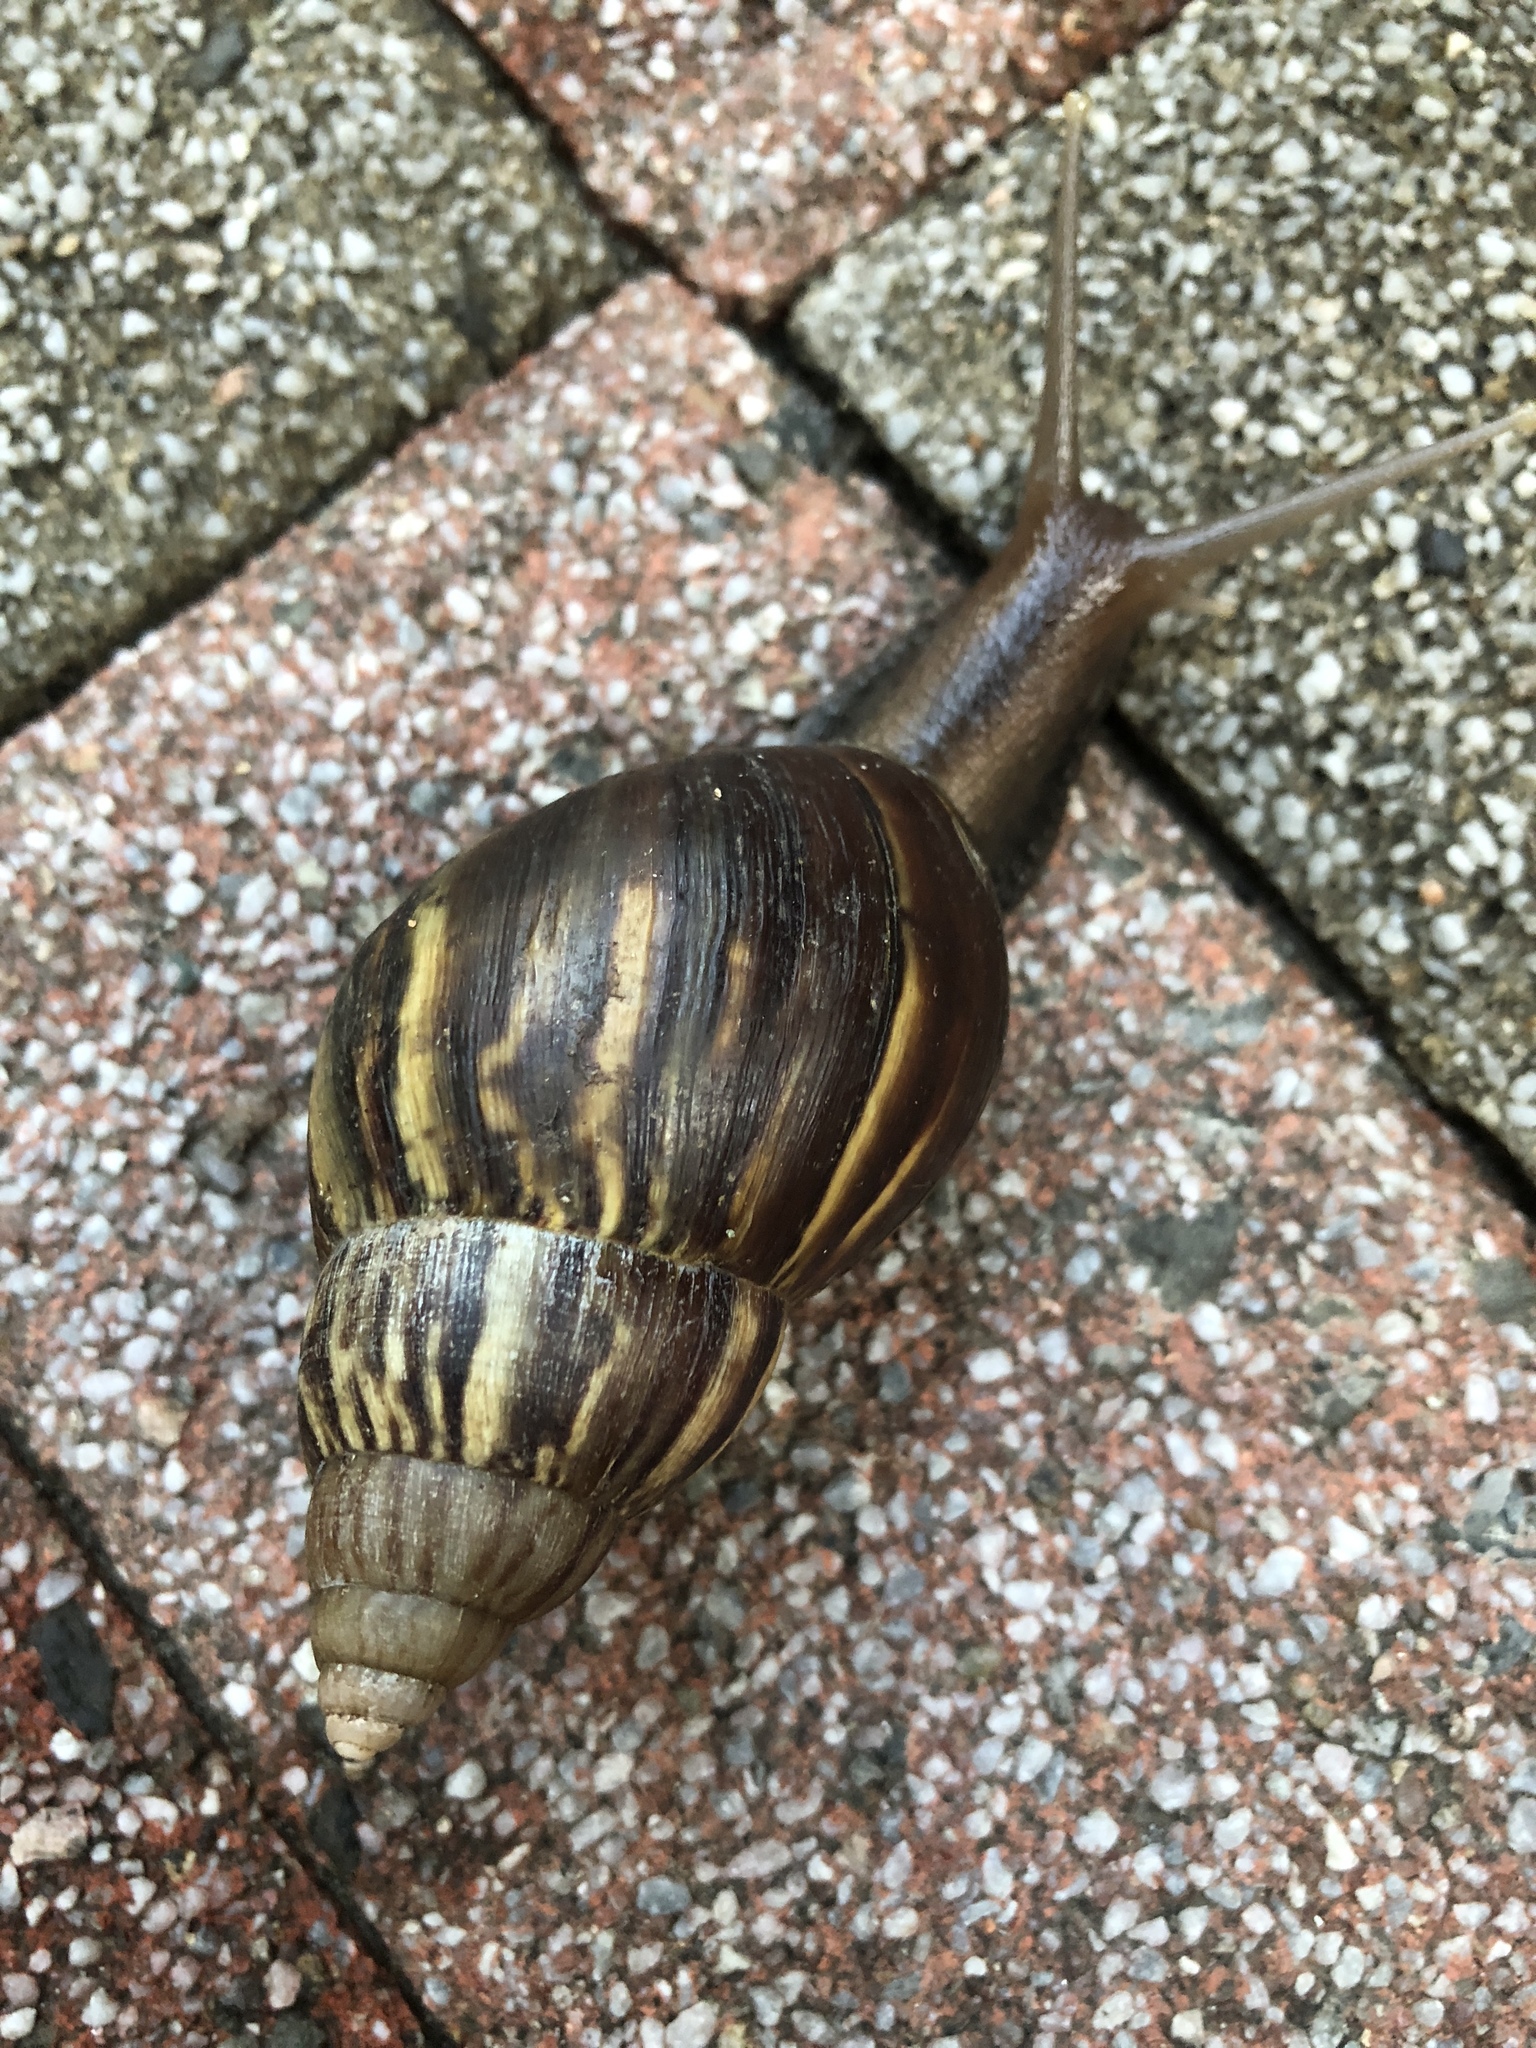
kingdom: Animalia
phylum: Mollusca
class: Gastropoda
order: Stylommatophora
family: Achatinidae
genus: Lissachatina
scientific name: Lissachatina fulica
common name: Giant african snail
